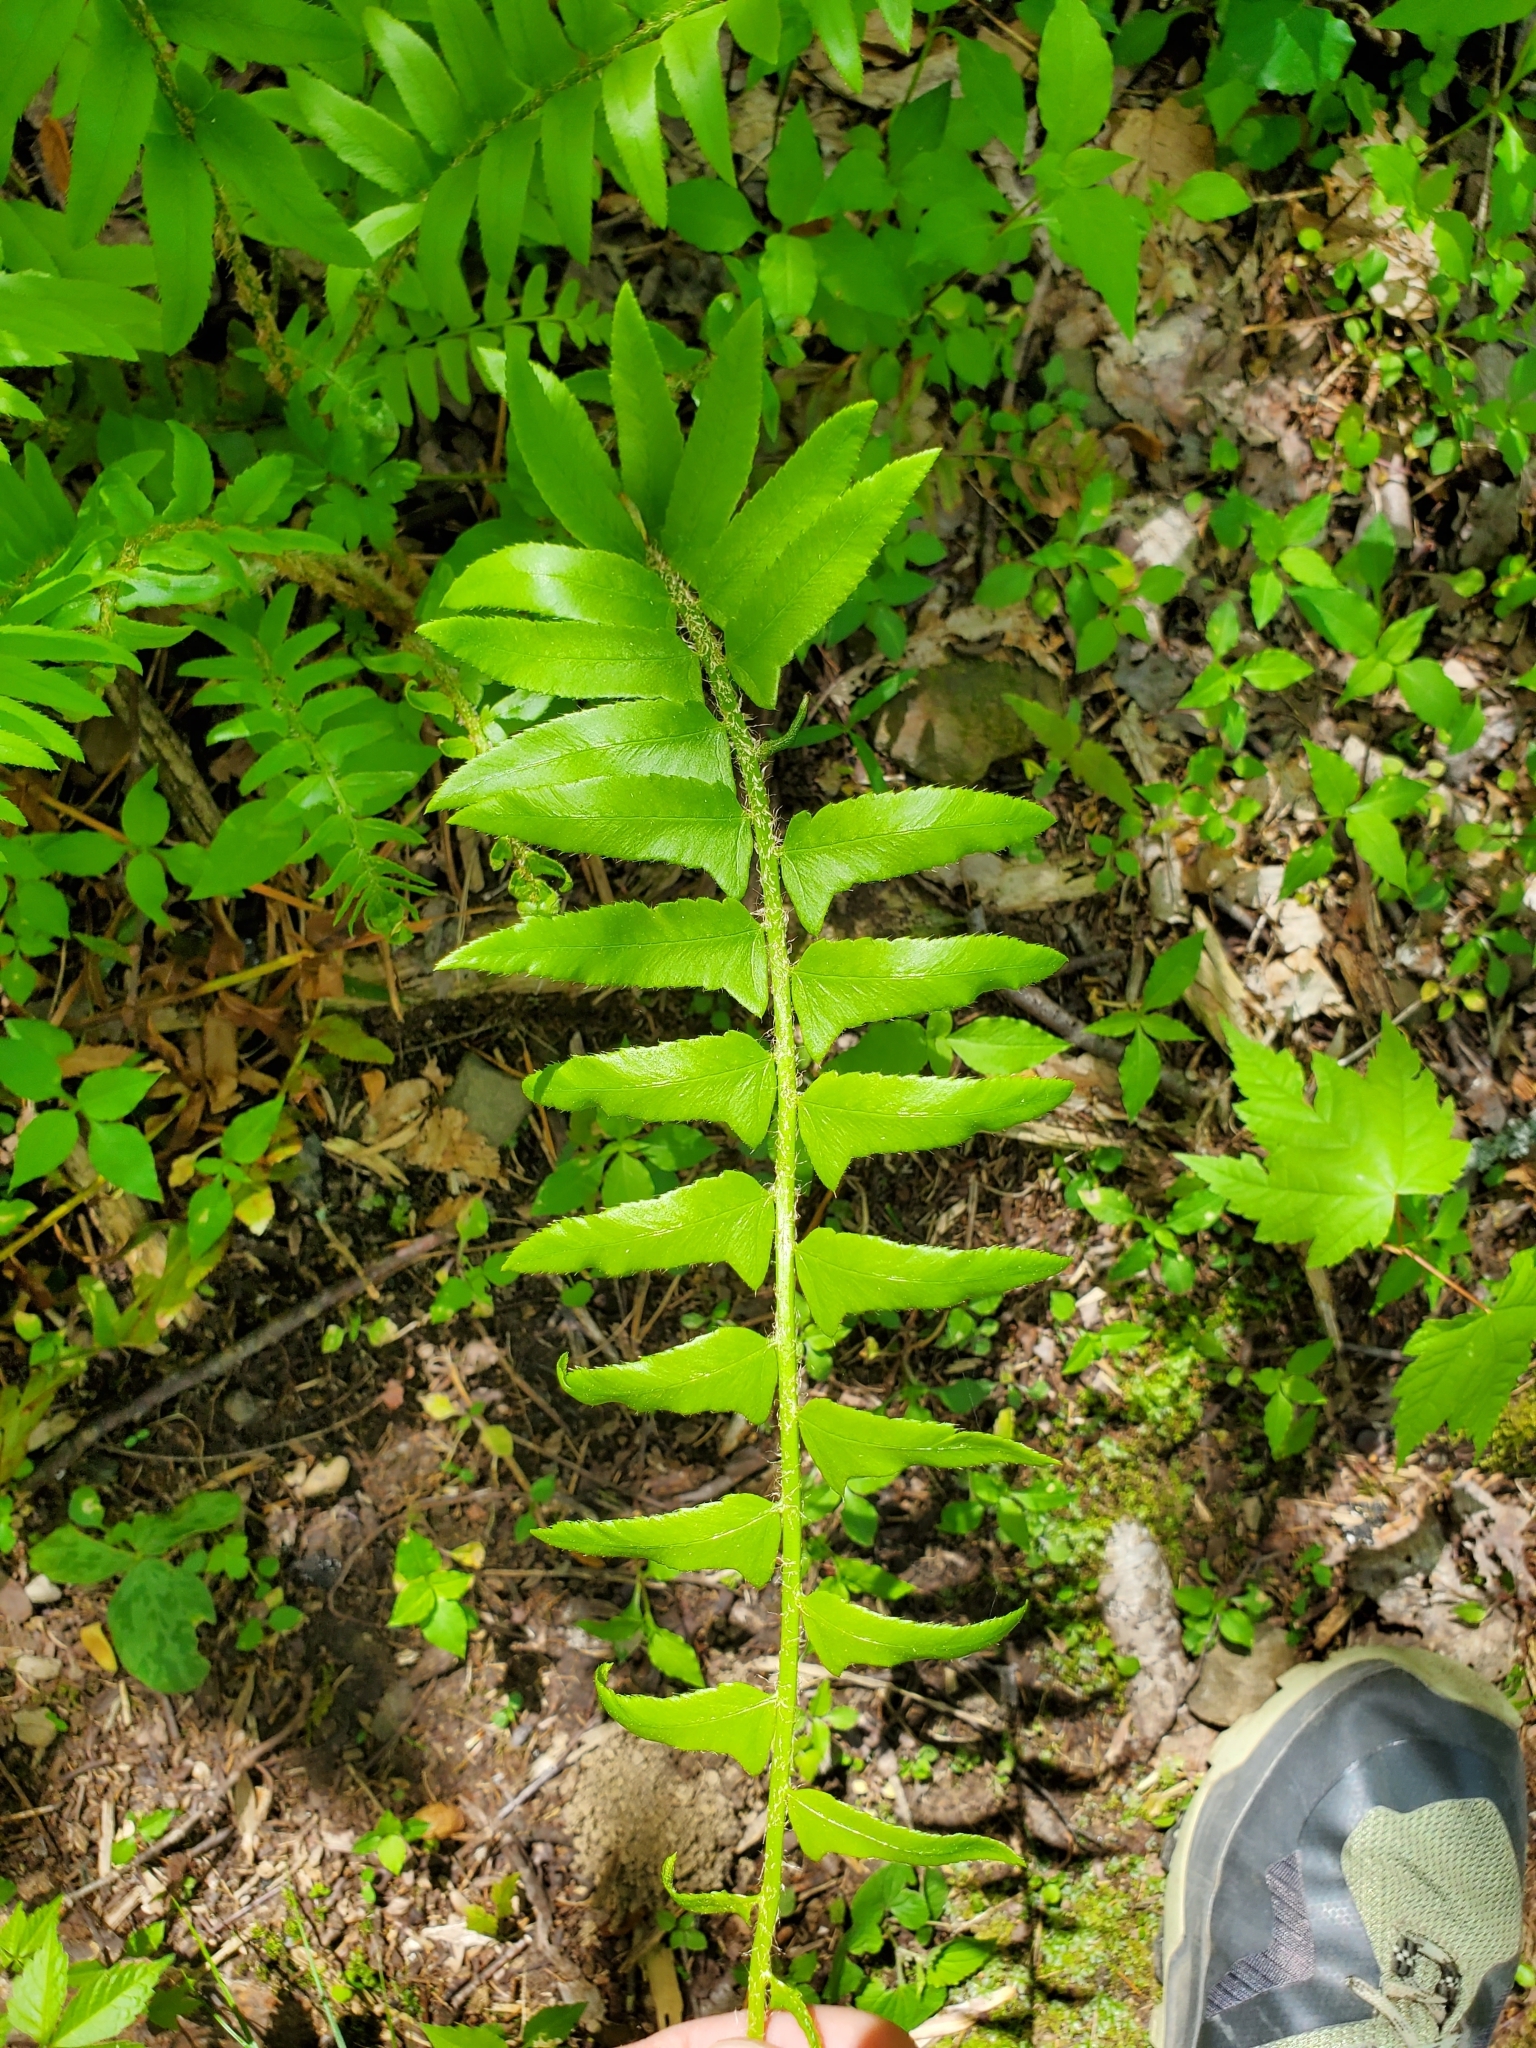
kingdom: Plantae
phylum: Tracheophyta
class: Polypodiopsida
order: Polypodiales
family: Dryopteridaceae
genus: Polystichum
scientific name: Polystichum acrostichoides
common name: Christmas fern
